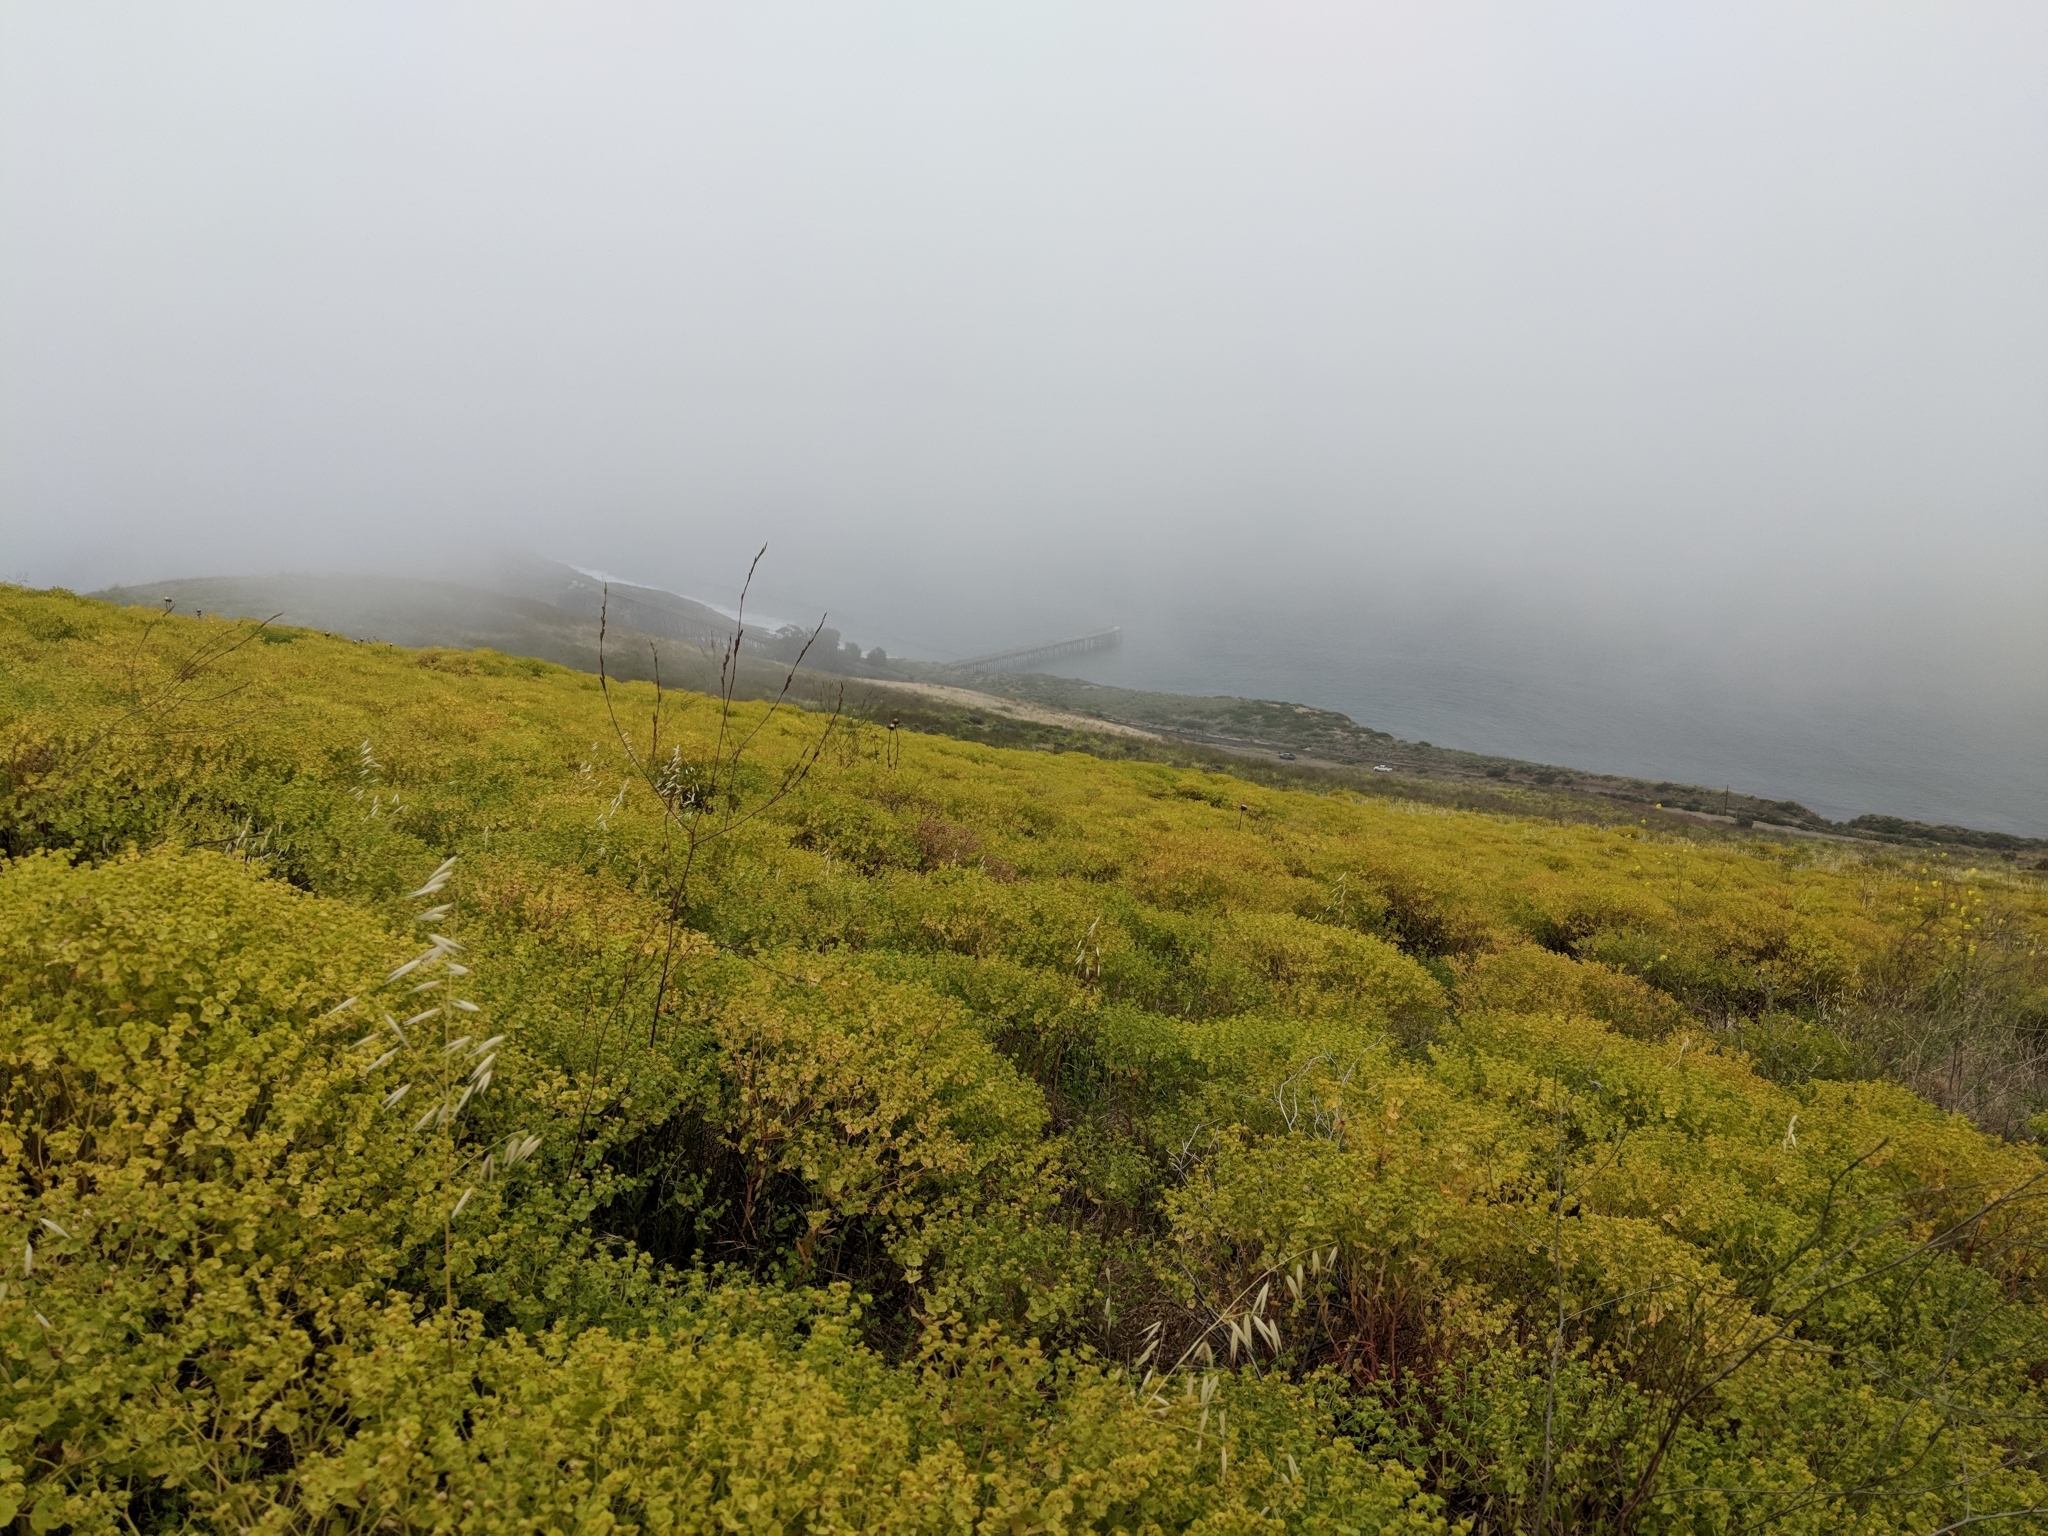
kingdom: Plantae
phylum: Tracheophyta
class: Magnoliopsida
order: Malpighiales
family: Euphorbiaceae
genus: Euphorbia
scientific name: Euphorbia terracina
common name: Geraldton carnation weed
